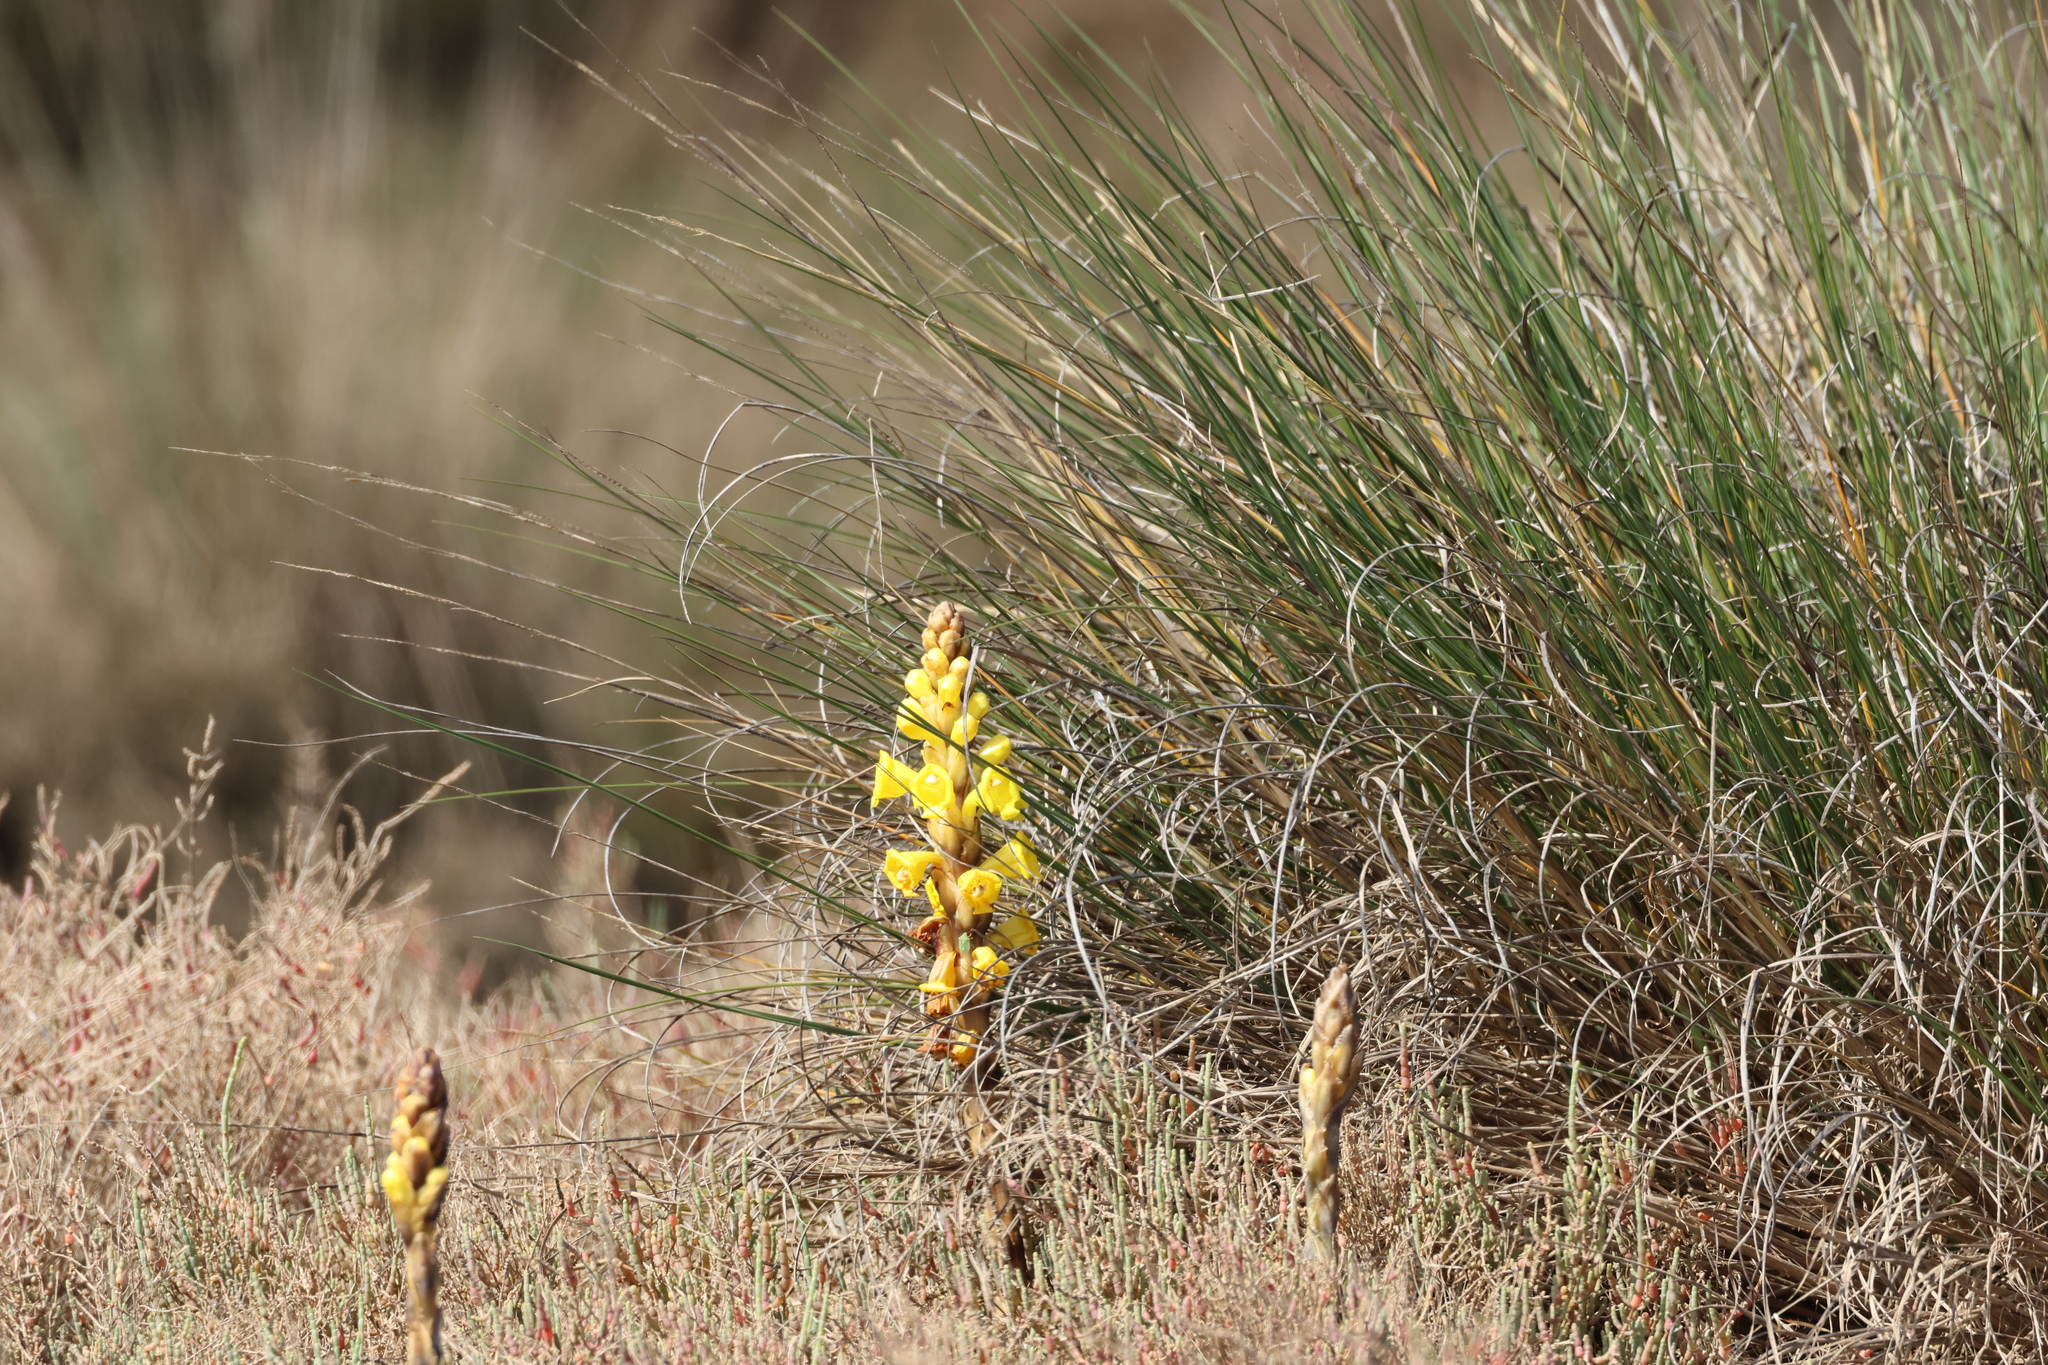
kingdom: Plantae
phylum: Tracheophyta
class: Magnoliopsida
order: Lamiales
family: Orobanchaceae
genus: Cistanche
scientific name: Cistanche phelypaea
